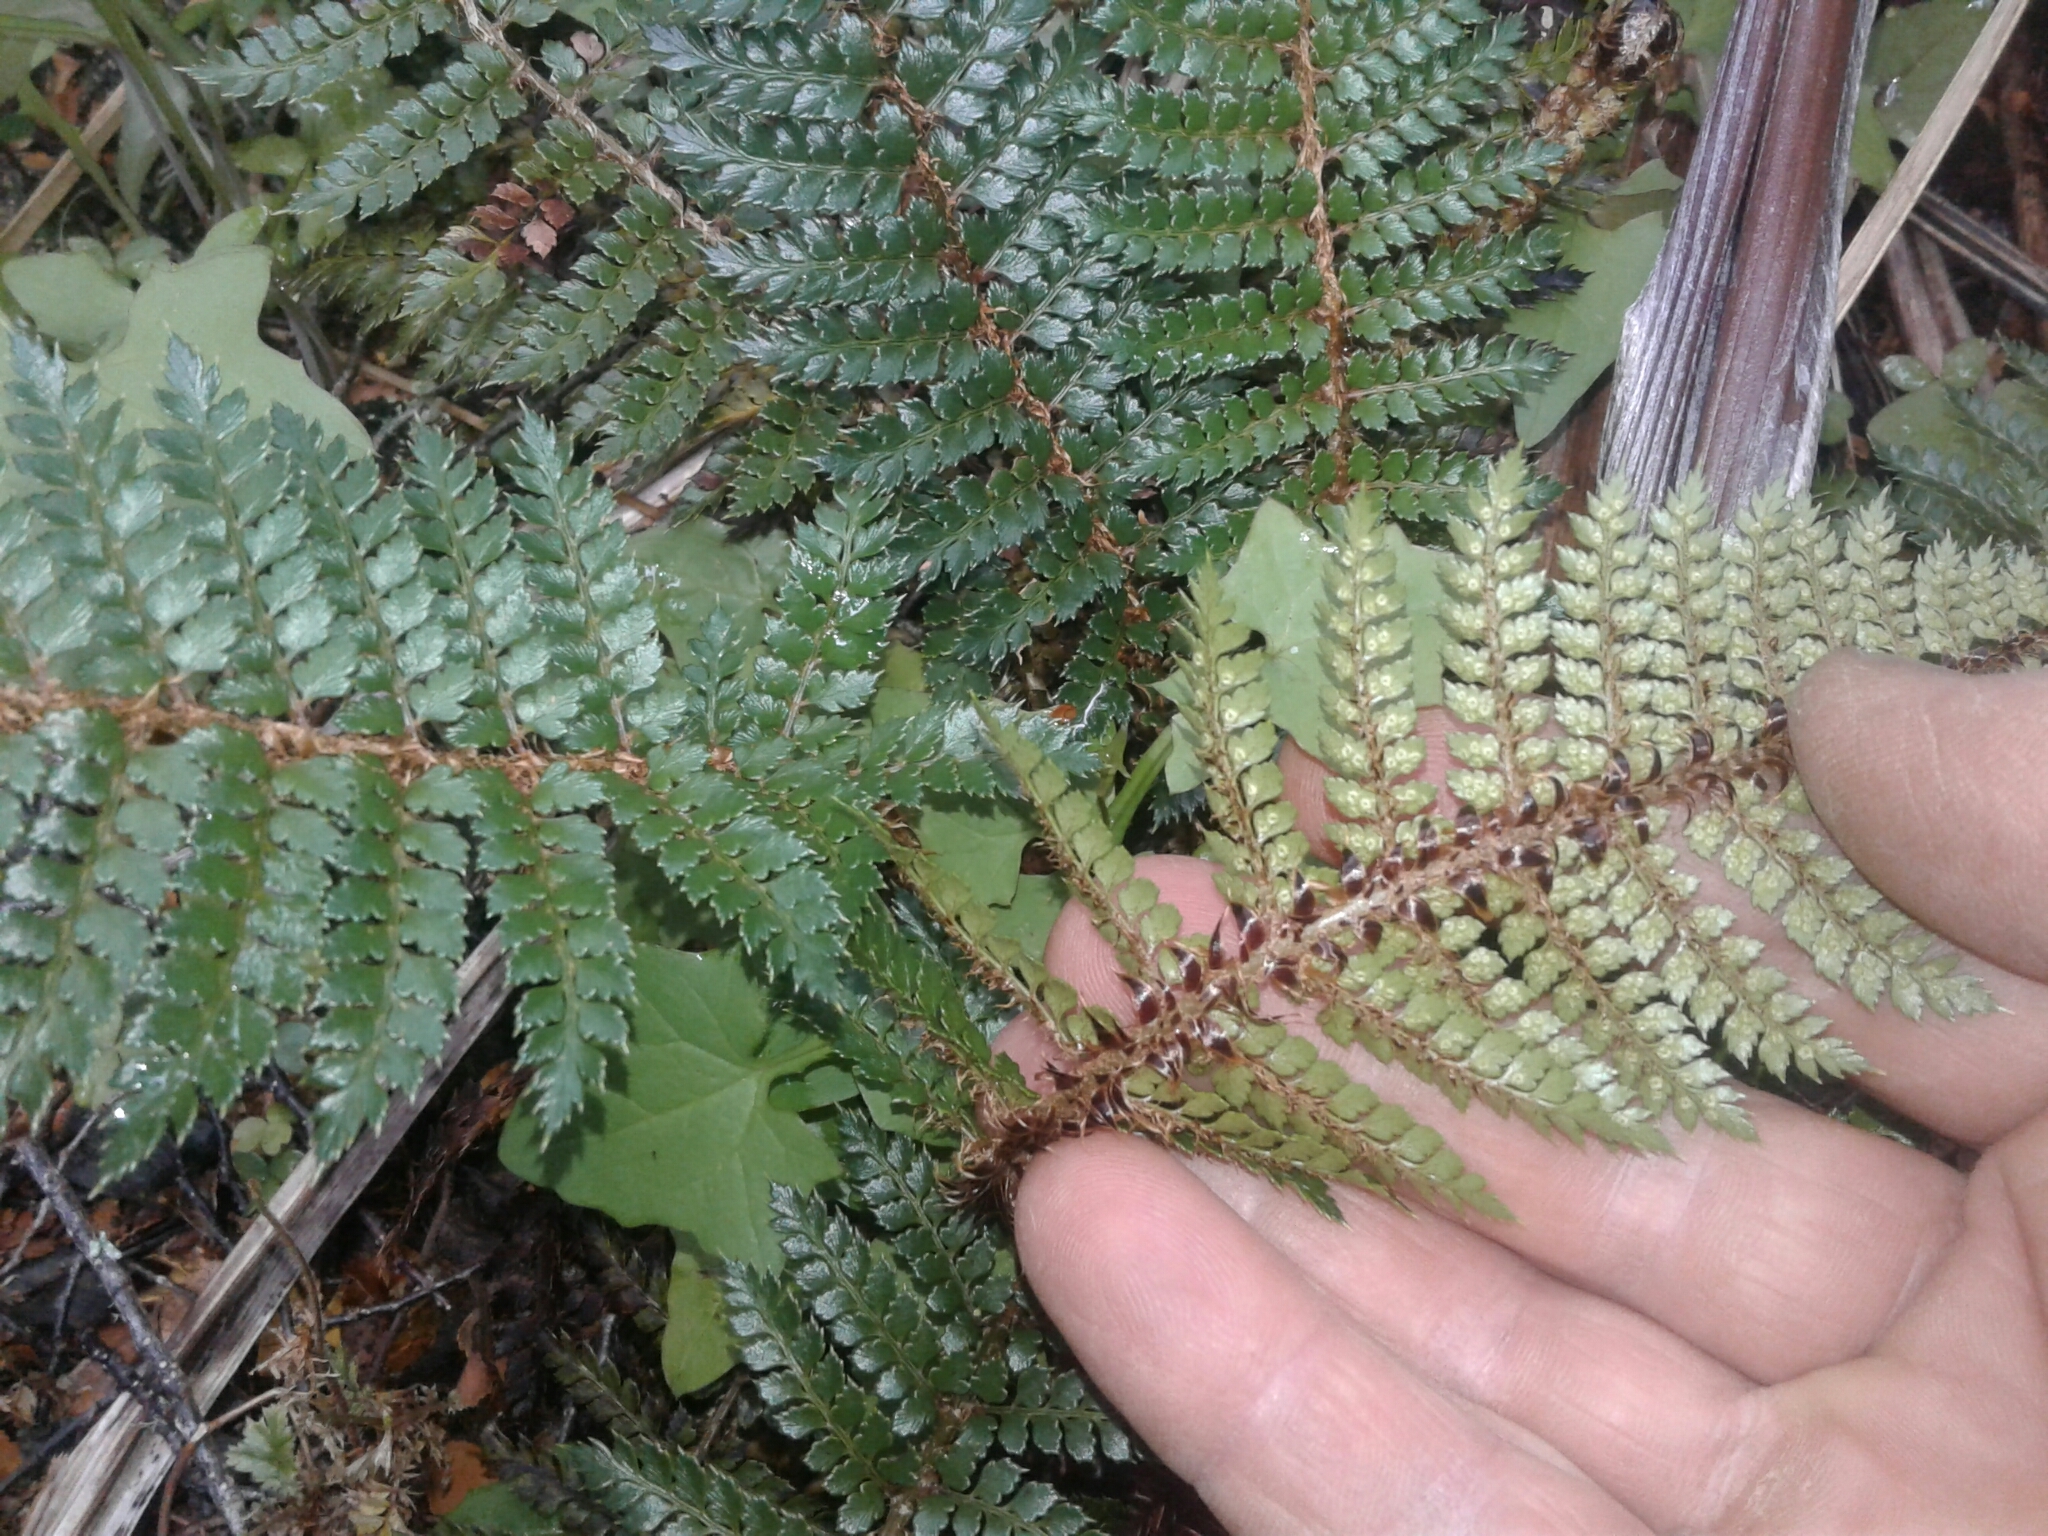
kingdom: Plantae
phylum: Tracheophyta
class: Polypodiopsida
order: Polypodiales
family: Dryopteridaceae
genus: Polystichum
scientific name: Polystichum vestitum
